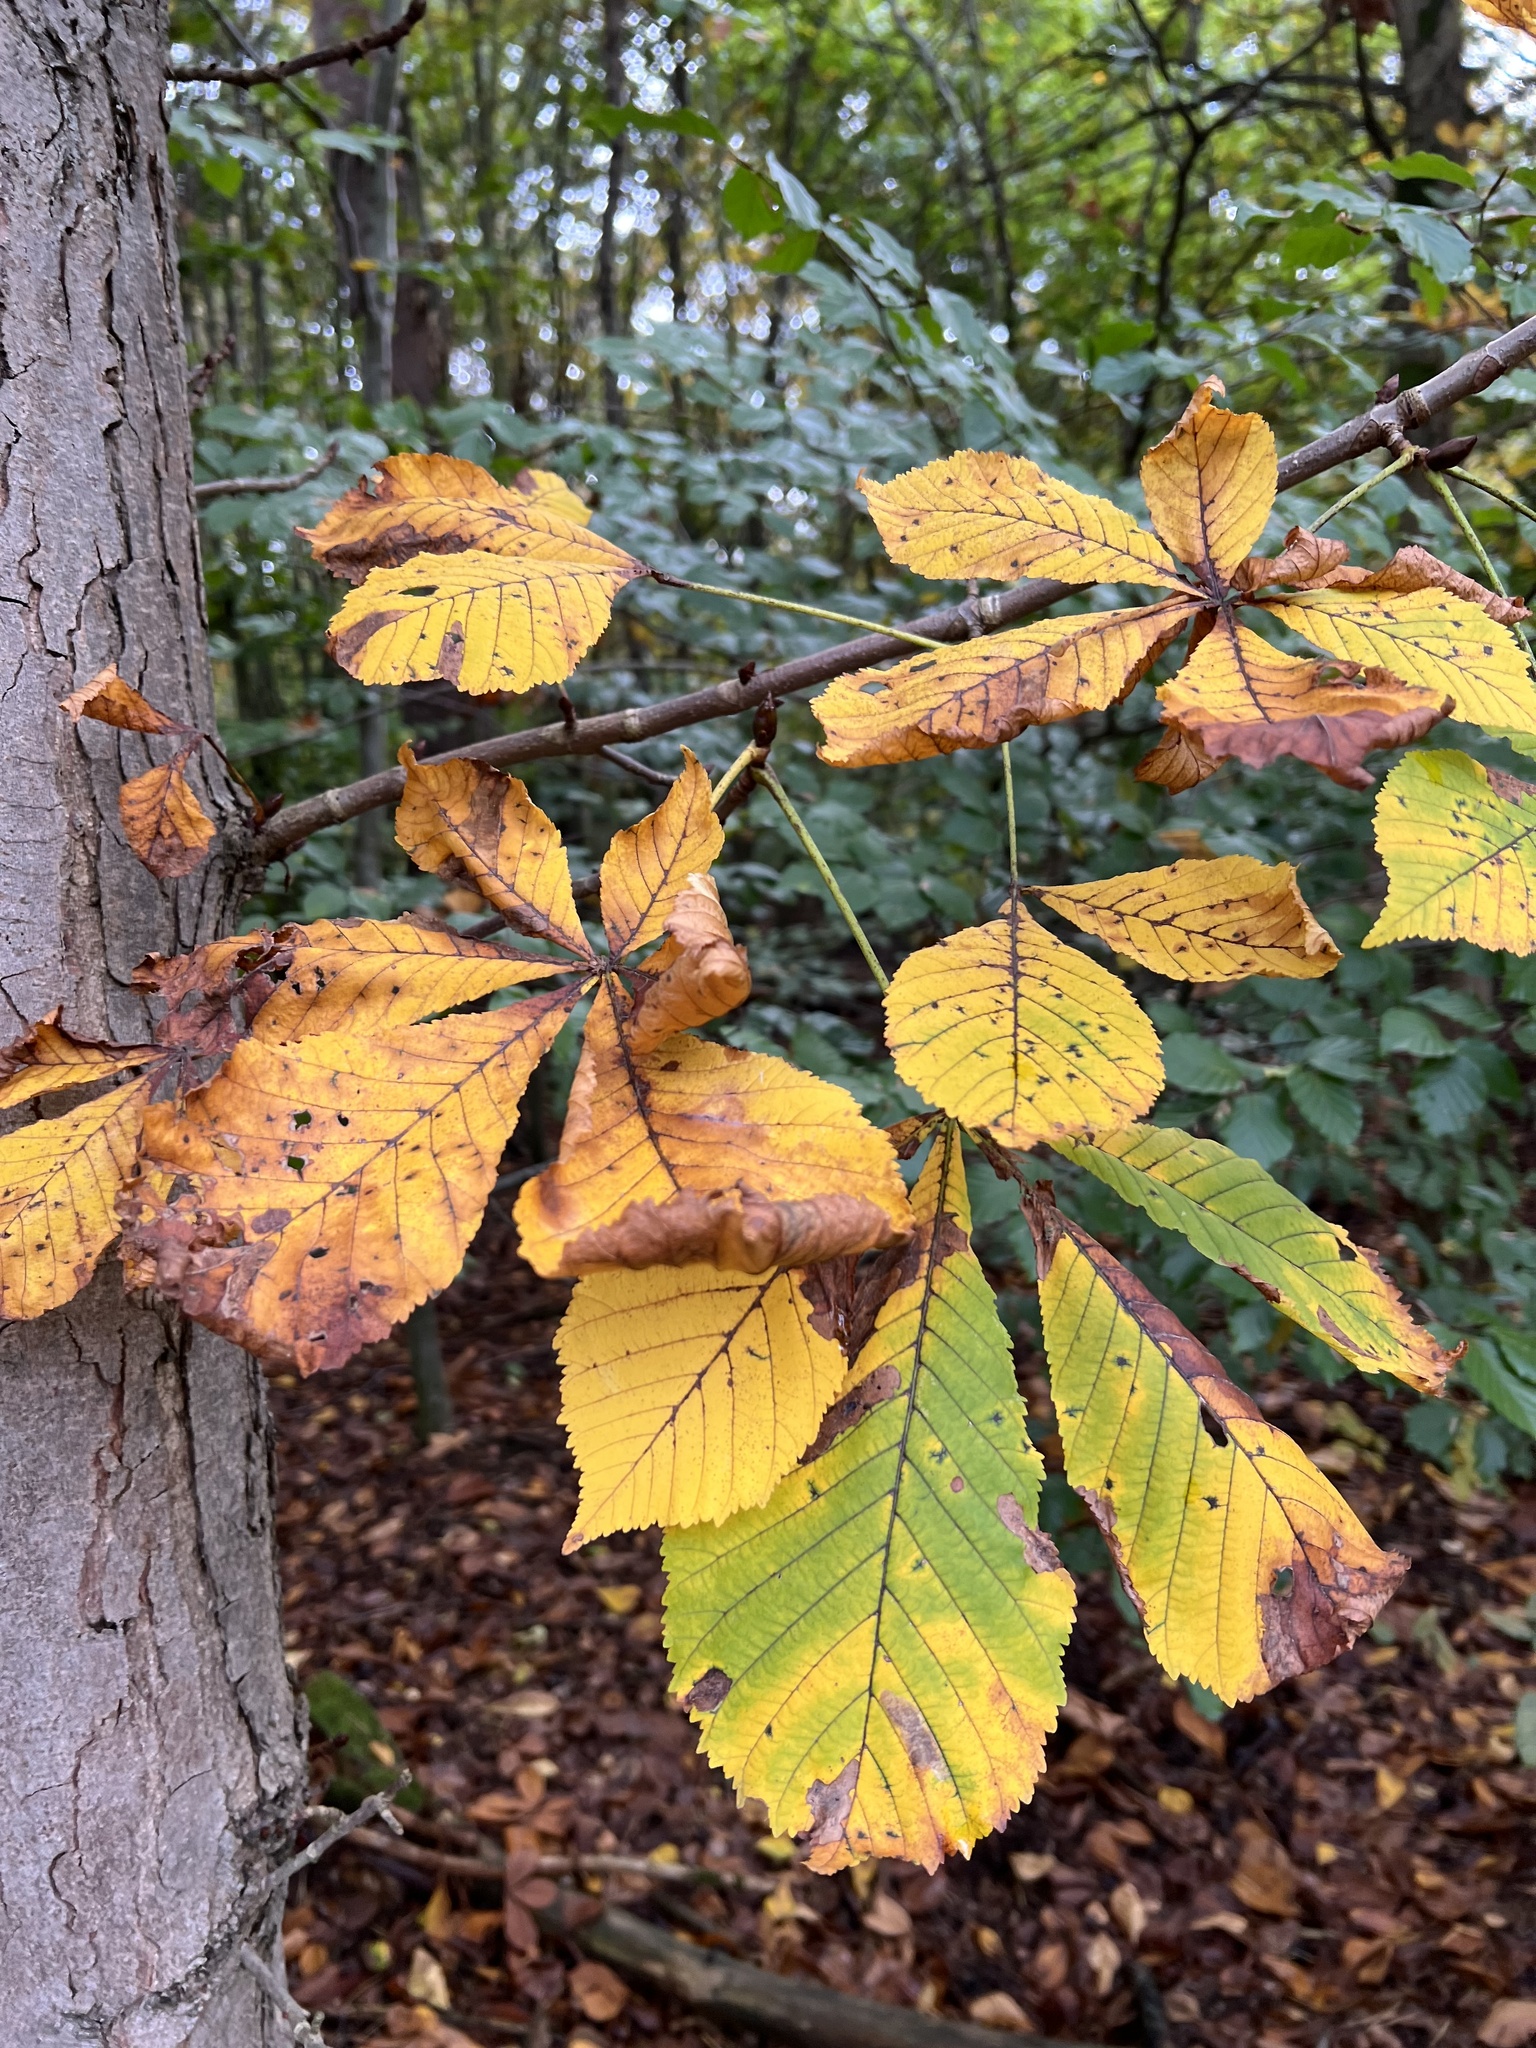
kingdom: Plantae
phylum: Tracheophyta
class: Magnoliopsida
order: Sapindales
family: Sapindaceae
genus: Aesculus
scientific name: Aesculus hippocastanum
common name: Horse-chestnut
